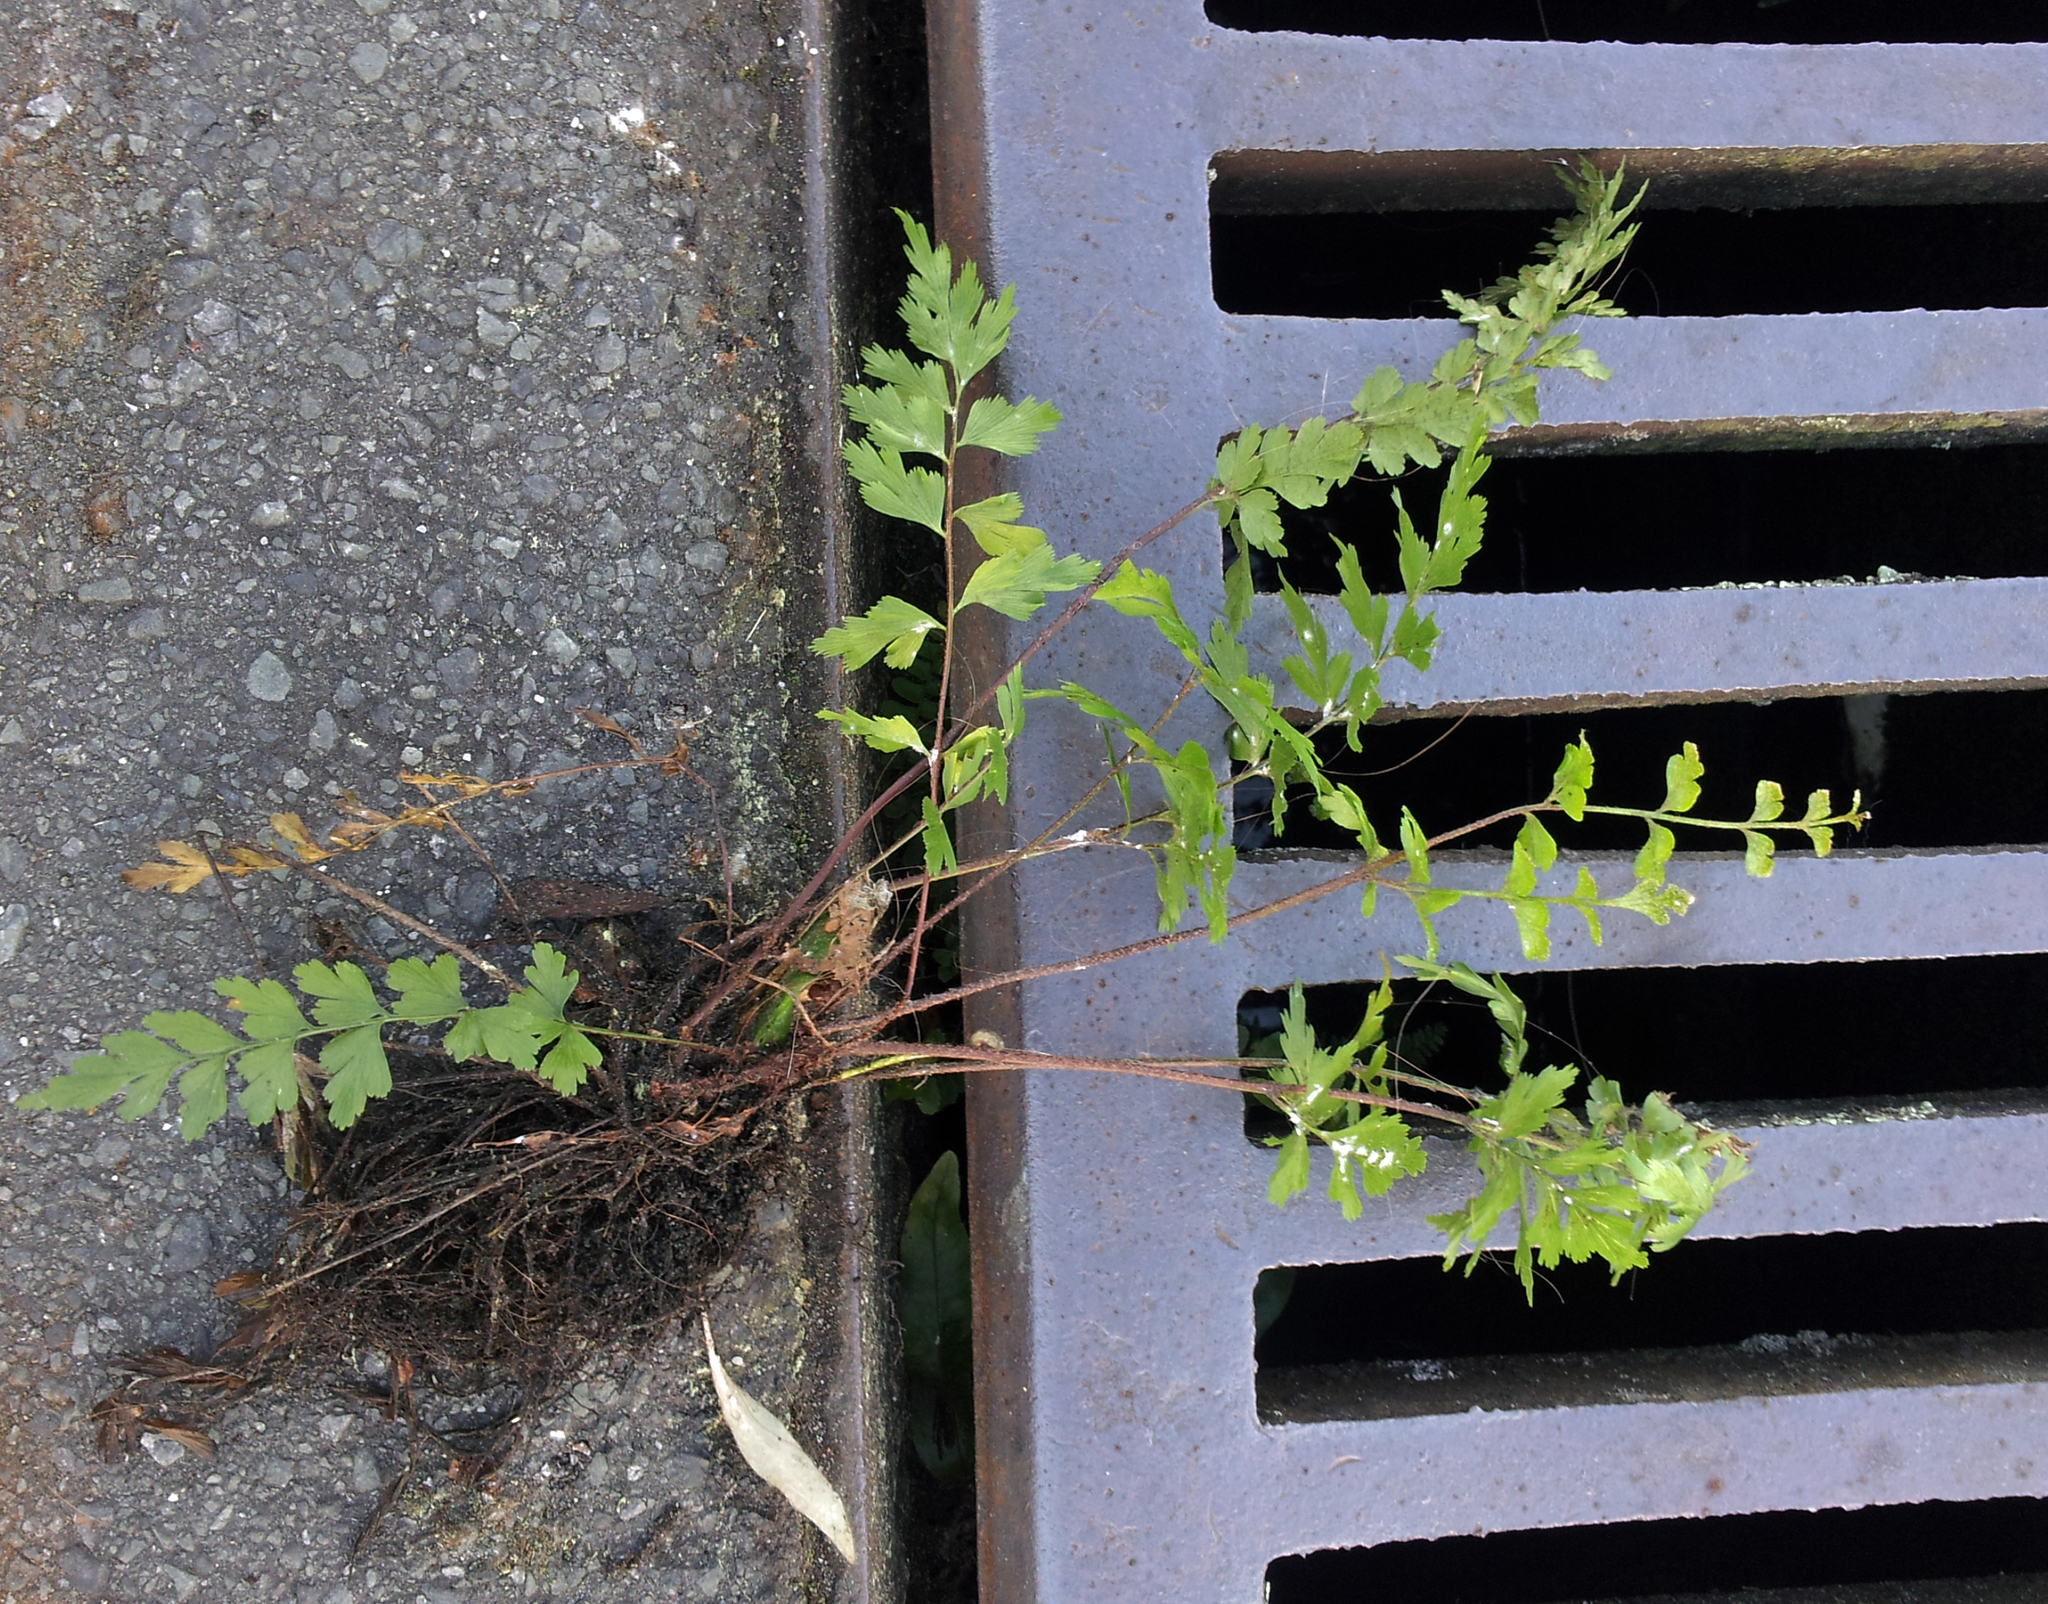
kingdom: Plantae
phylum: Tracheophyta
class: Polypodiopsida
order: Polypodiales
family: Aspleniaceae
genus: Asplenium
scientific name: Asplenium aethiopicum
